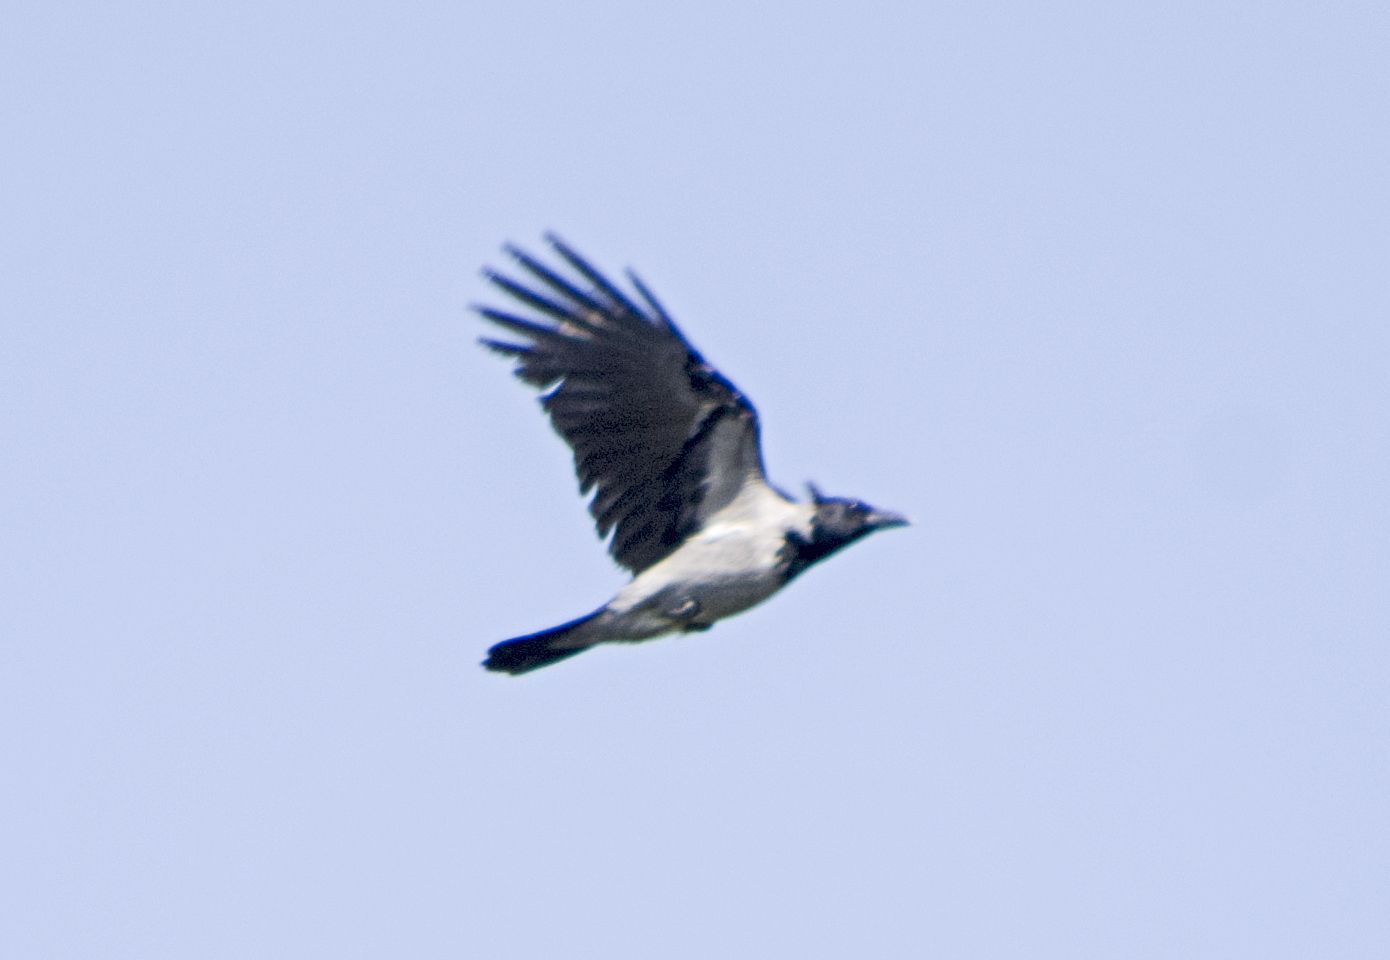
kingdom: Animalia
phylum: Chordata
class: Aves
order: Passeriformes
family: Corvidae
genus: Corvus
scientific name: Corvus cornix
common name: Hooded crow
